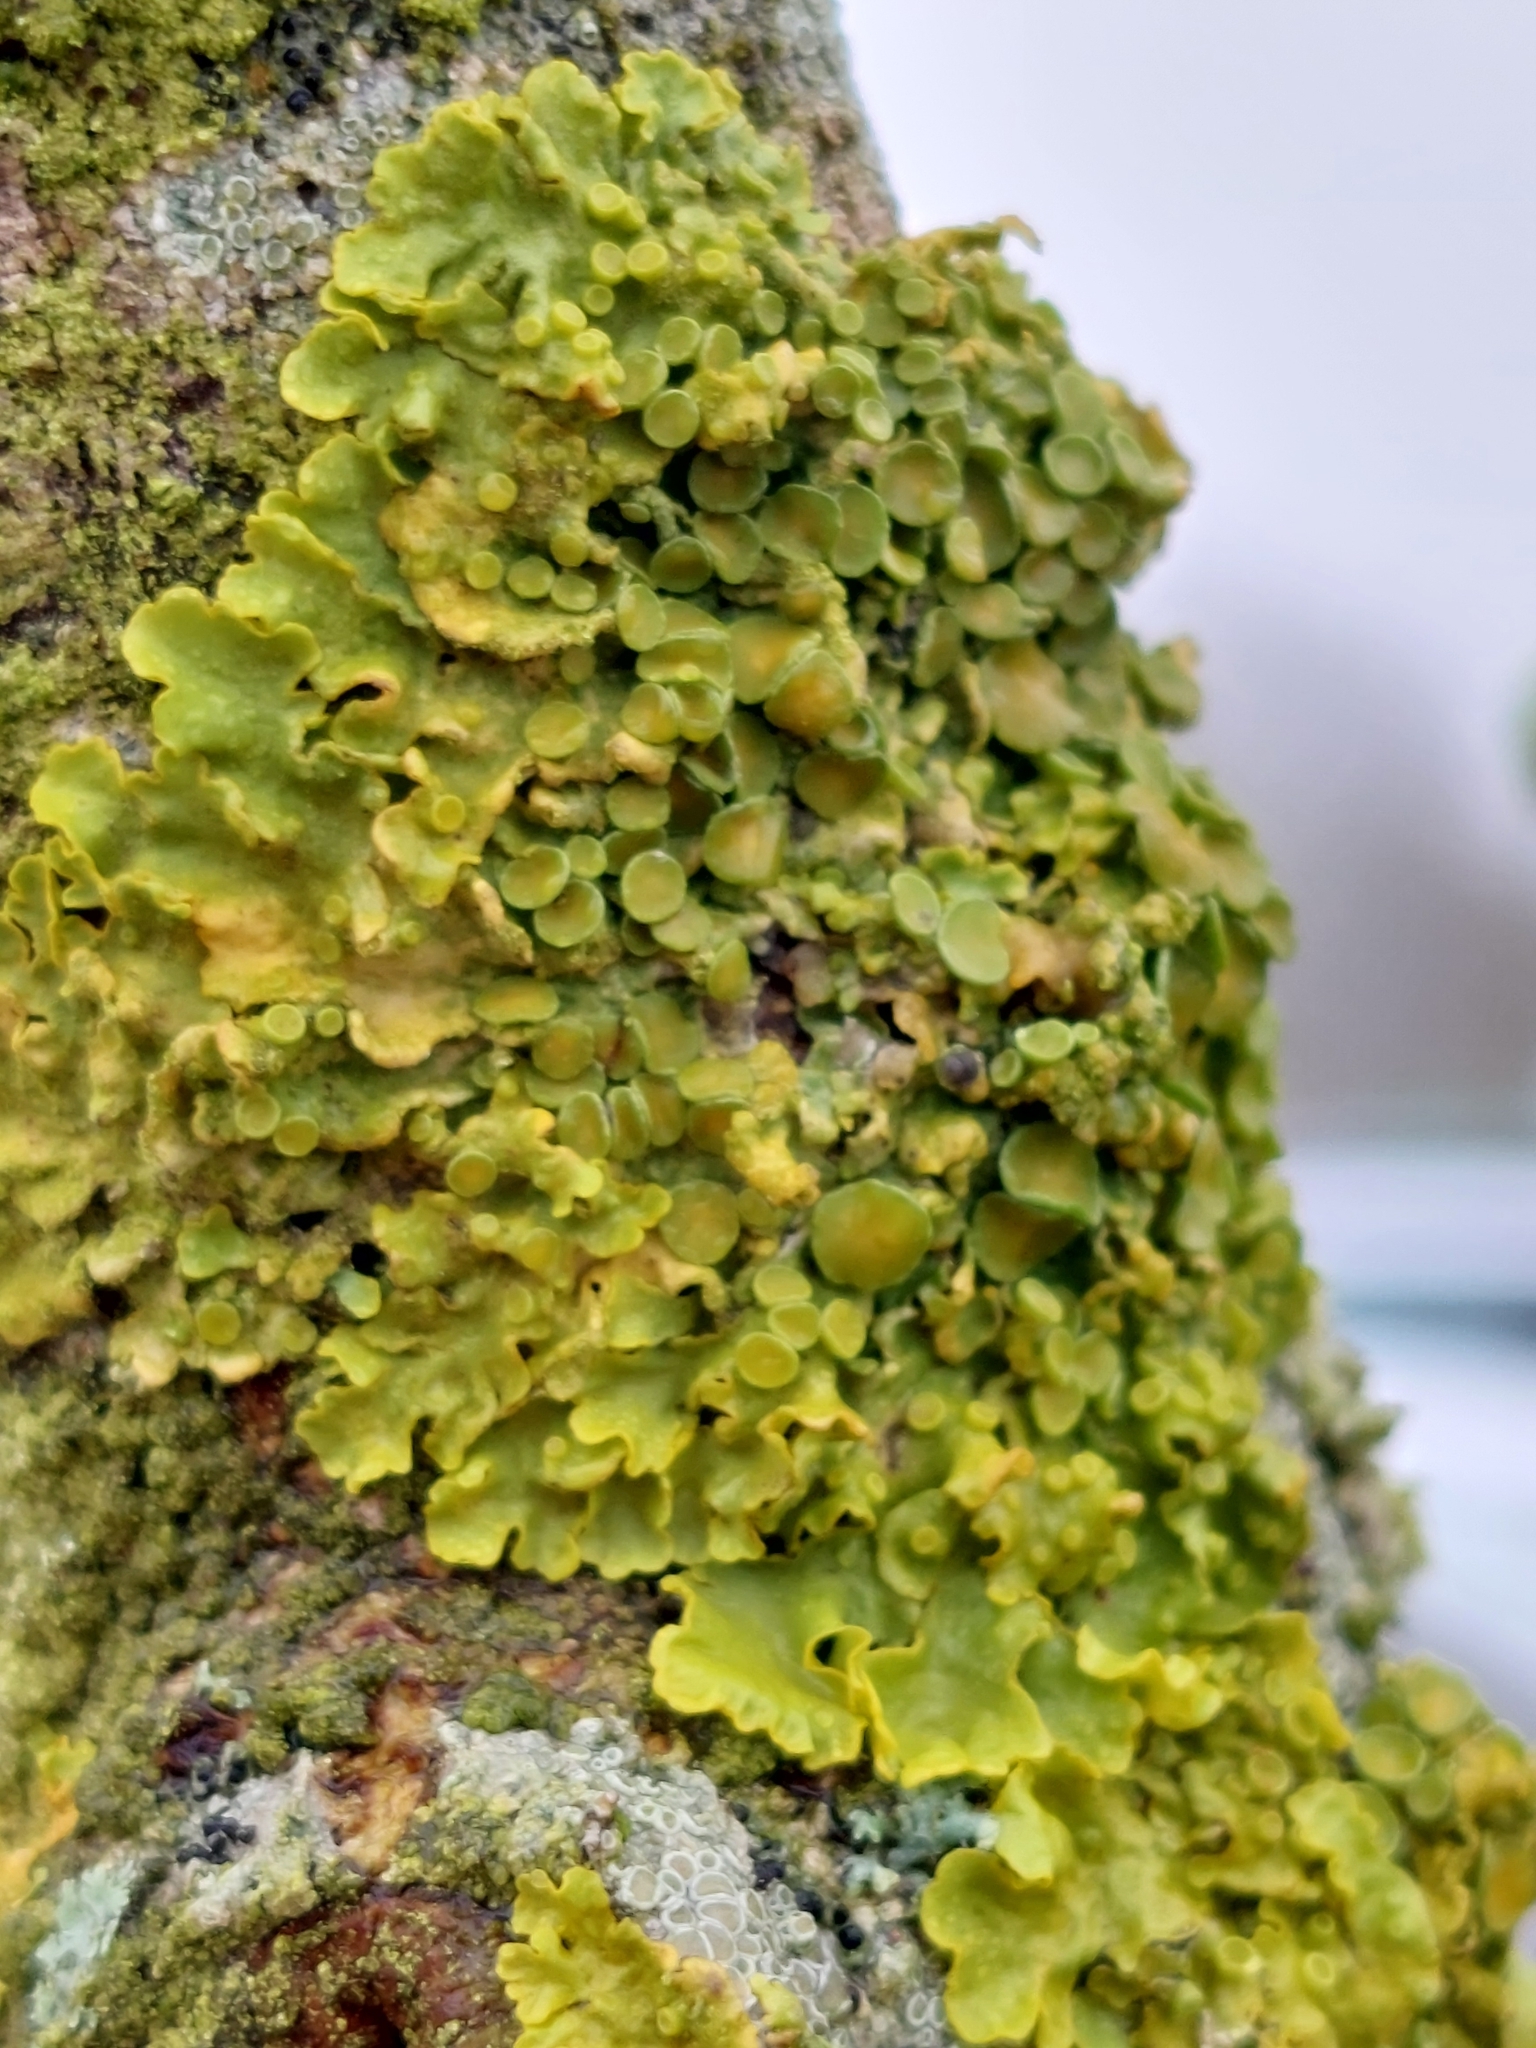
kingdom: Fungi
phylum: Ascomycota
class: Lecanoromycetes
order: Teloschistales
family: Teloschistaceae
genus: Xanthoria
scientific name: Xanthoria parietina
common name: Common orange lichen
